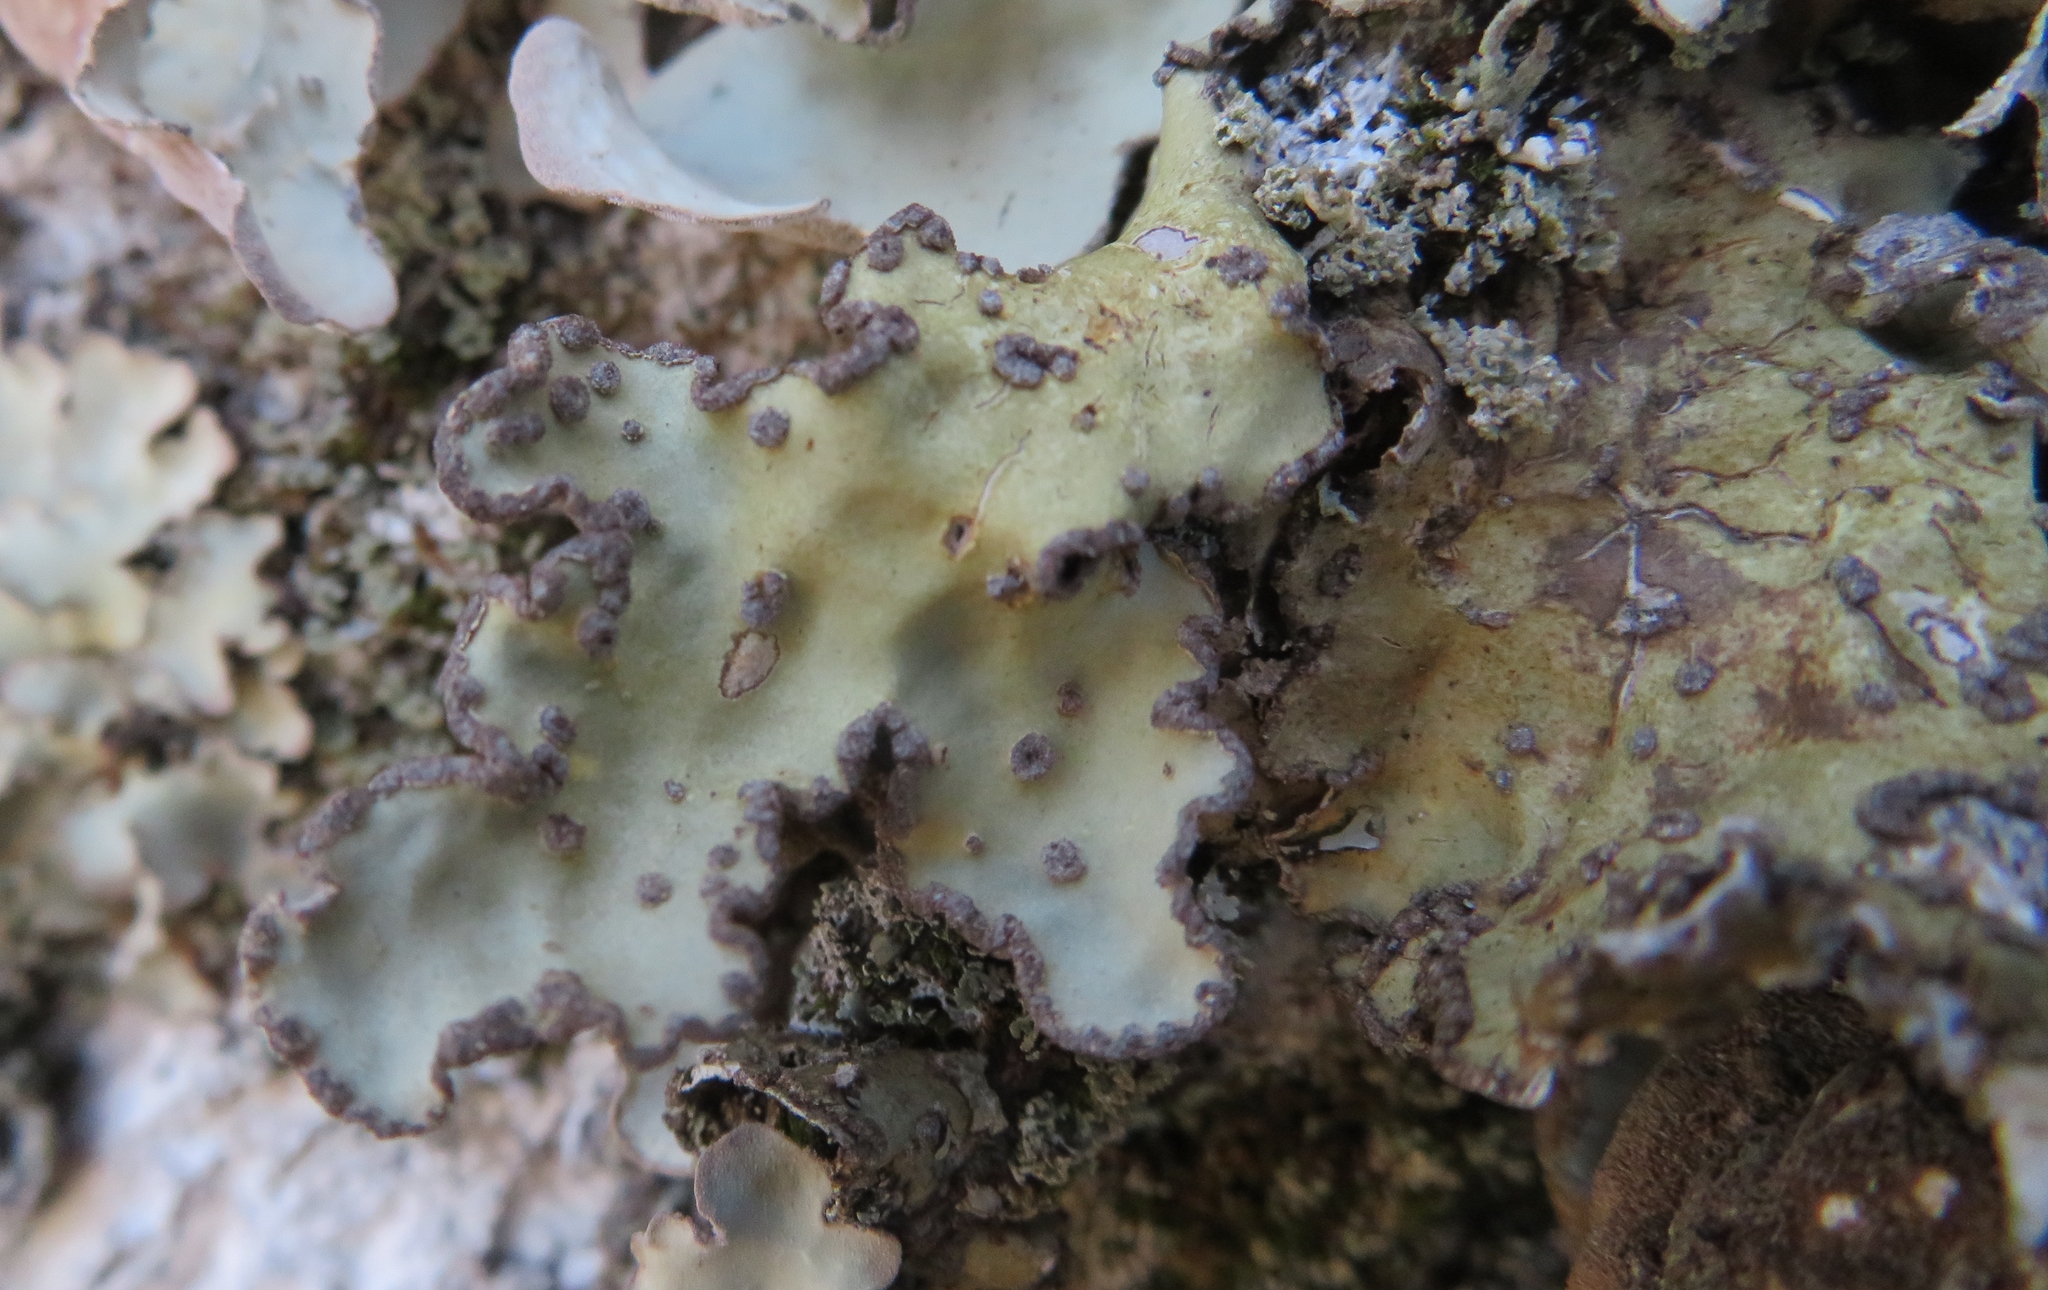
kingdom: Fungi
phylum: Ascomycota
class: Lecanoromycetes
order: Peltigerales
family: Lobariaceae
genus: Lobarina
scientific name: Lobarina scrobiculata
